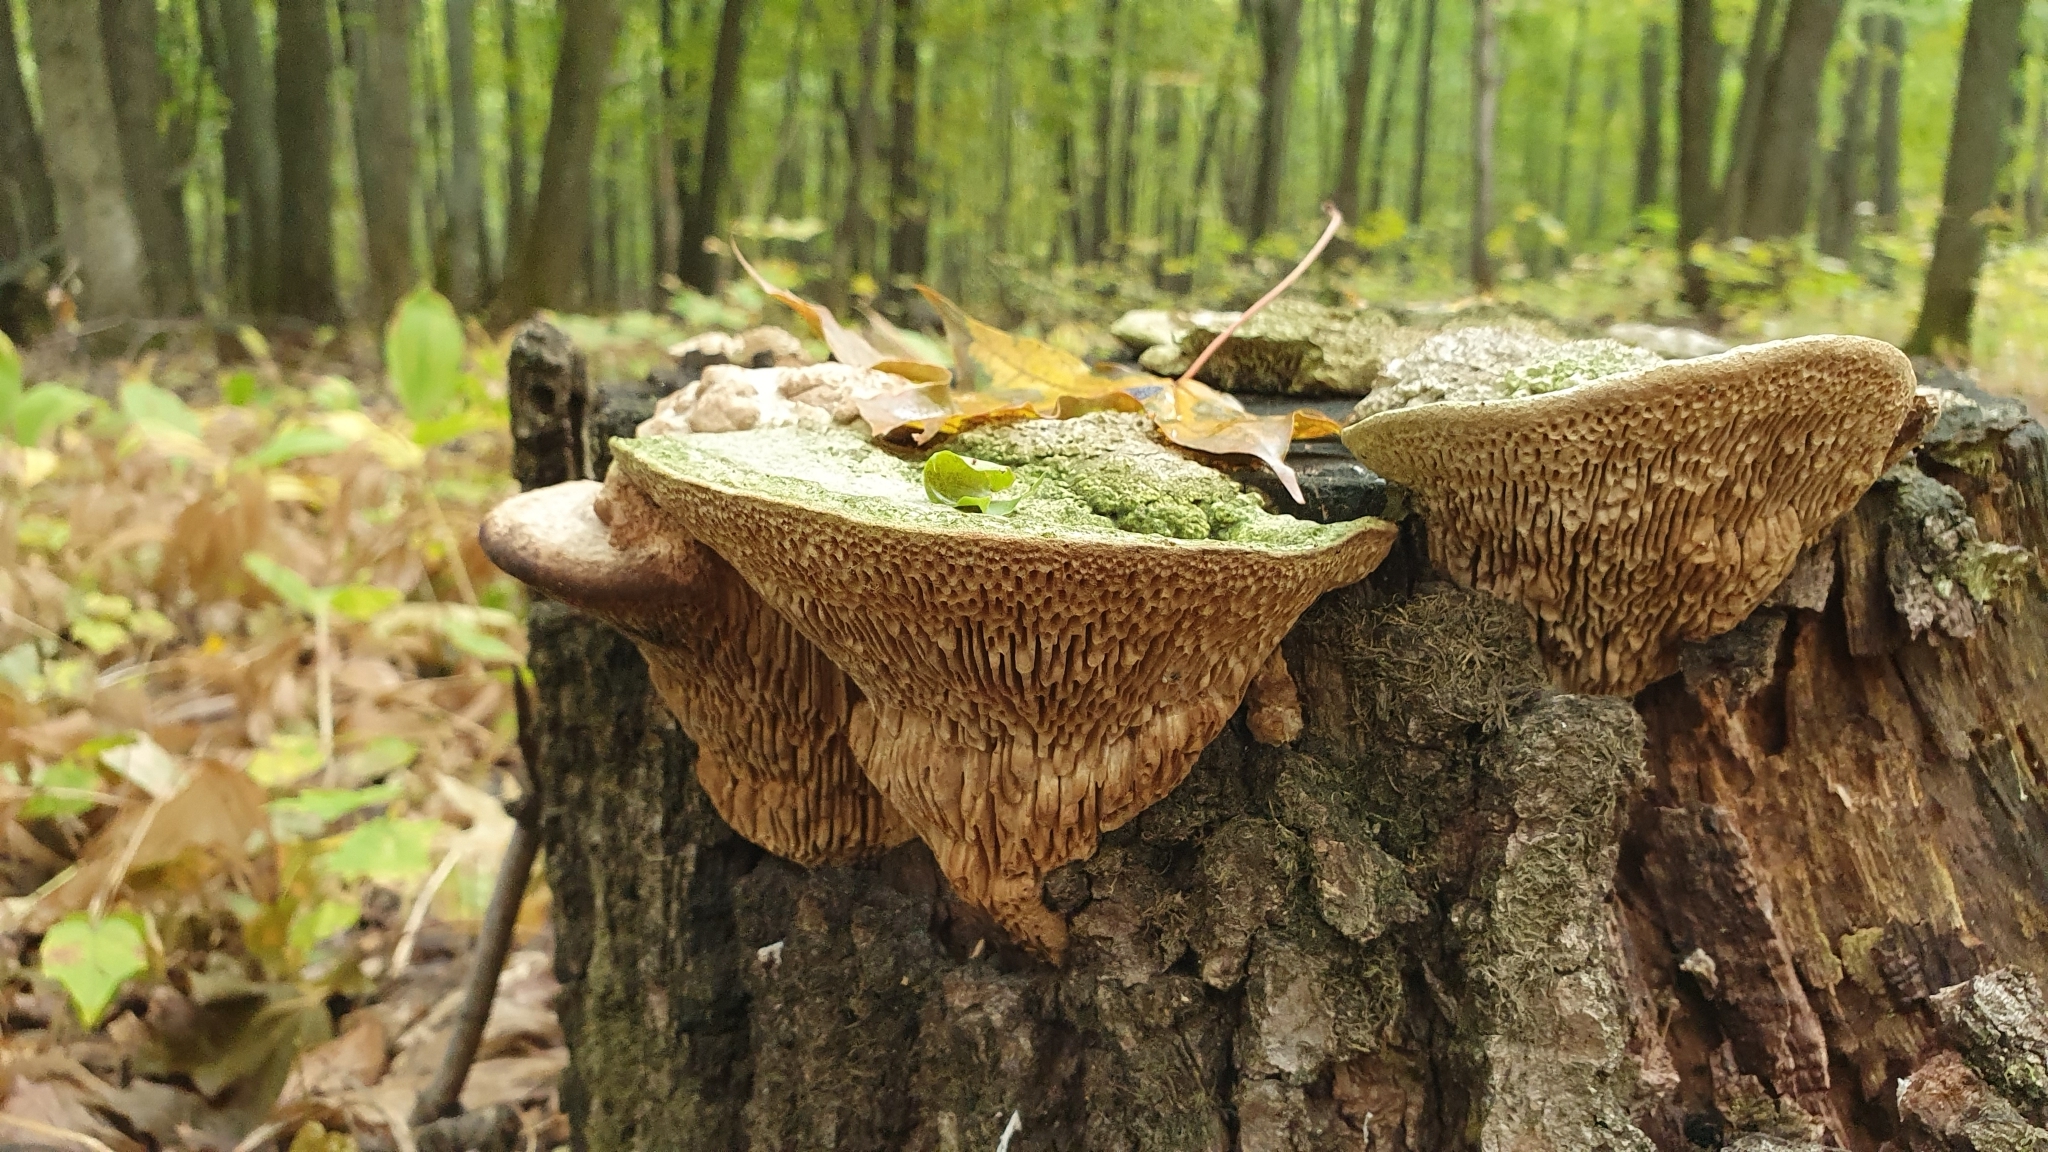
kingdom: Fungi
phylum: Basidiomycota
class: Agaricomycetes
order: Polyporales
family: Fomitopsidaceae
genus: Fomitopsis
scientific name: Fomitopsis
